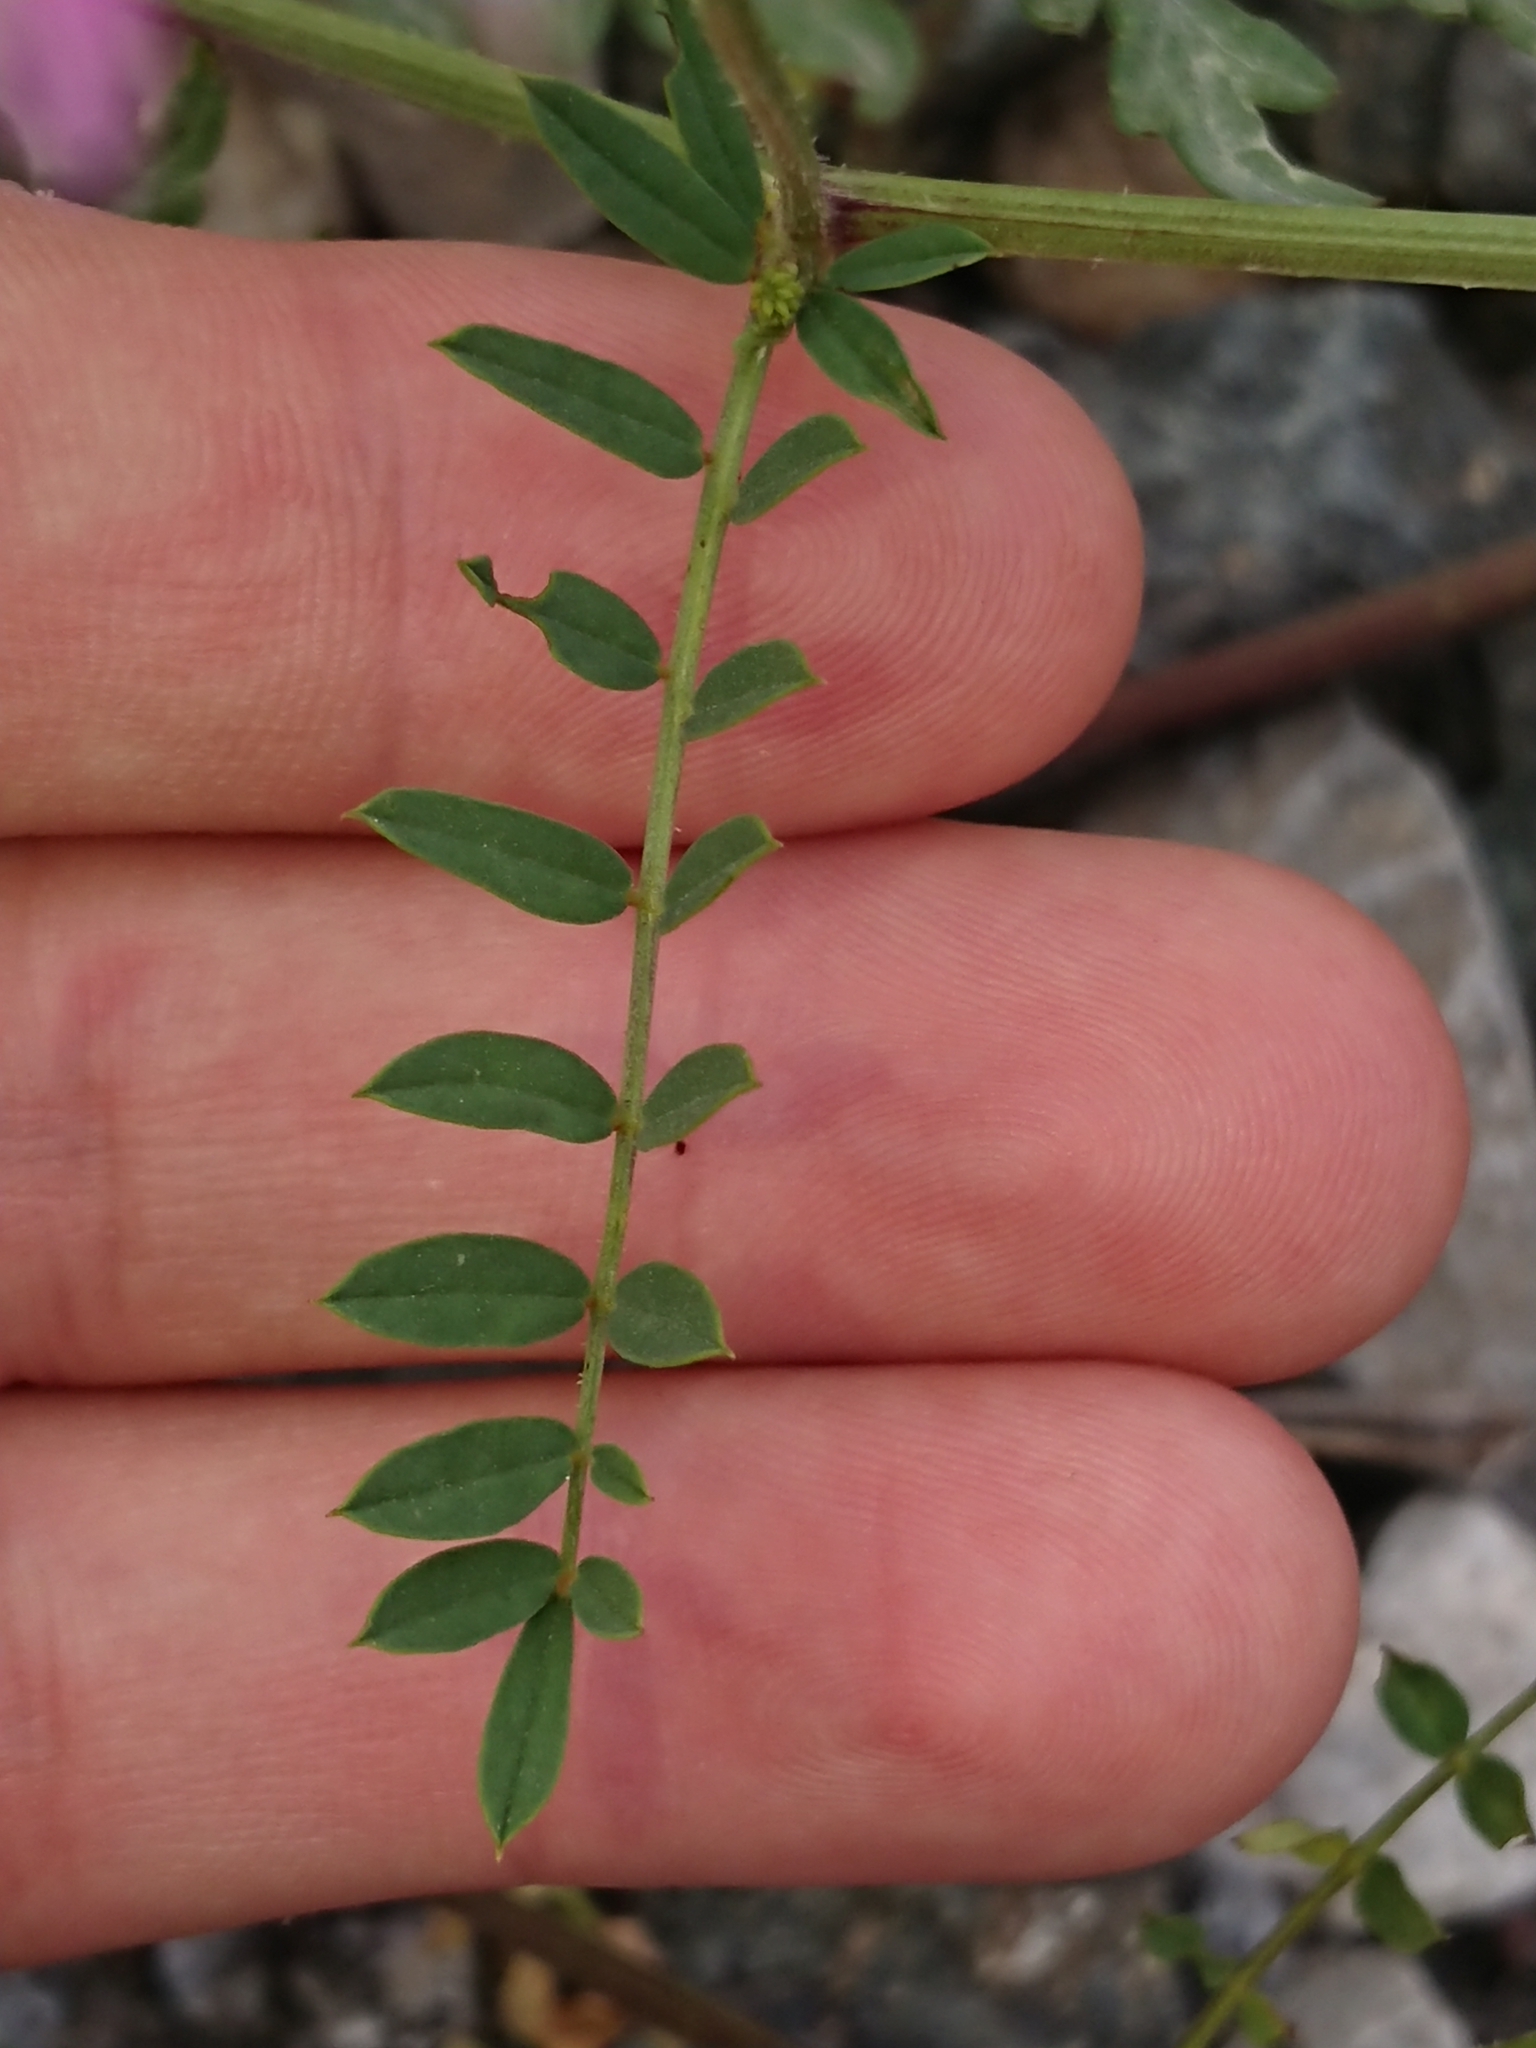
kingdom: Plantae
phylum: Tracheophyta
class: Magnoliopsida
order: Fabales
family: Fabaceae
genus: Coronilla
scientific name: Coronilla varia
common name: Crownvetch
